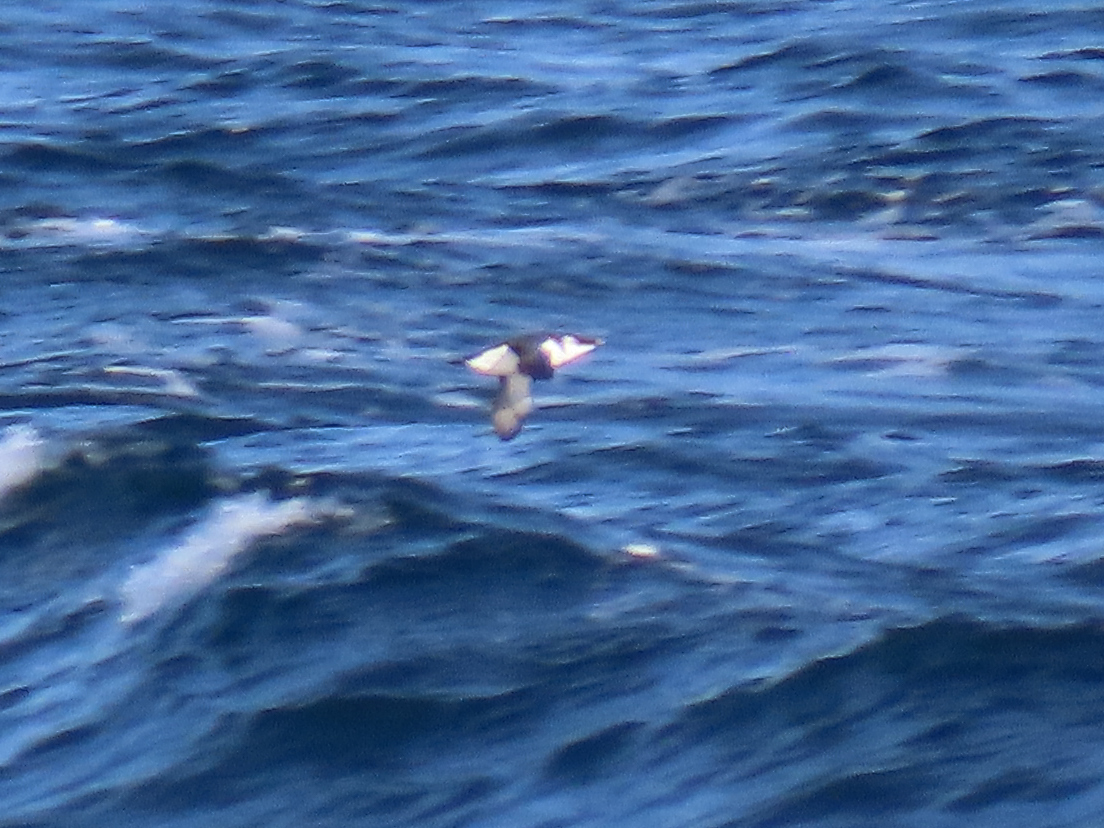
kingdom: Animalia
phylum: Chordata
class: Aves
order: Charadriiformes
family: Alcidae
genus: Alca
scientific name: Alca torda
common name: Razorbill
